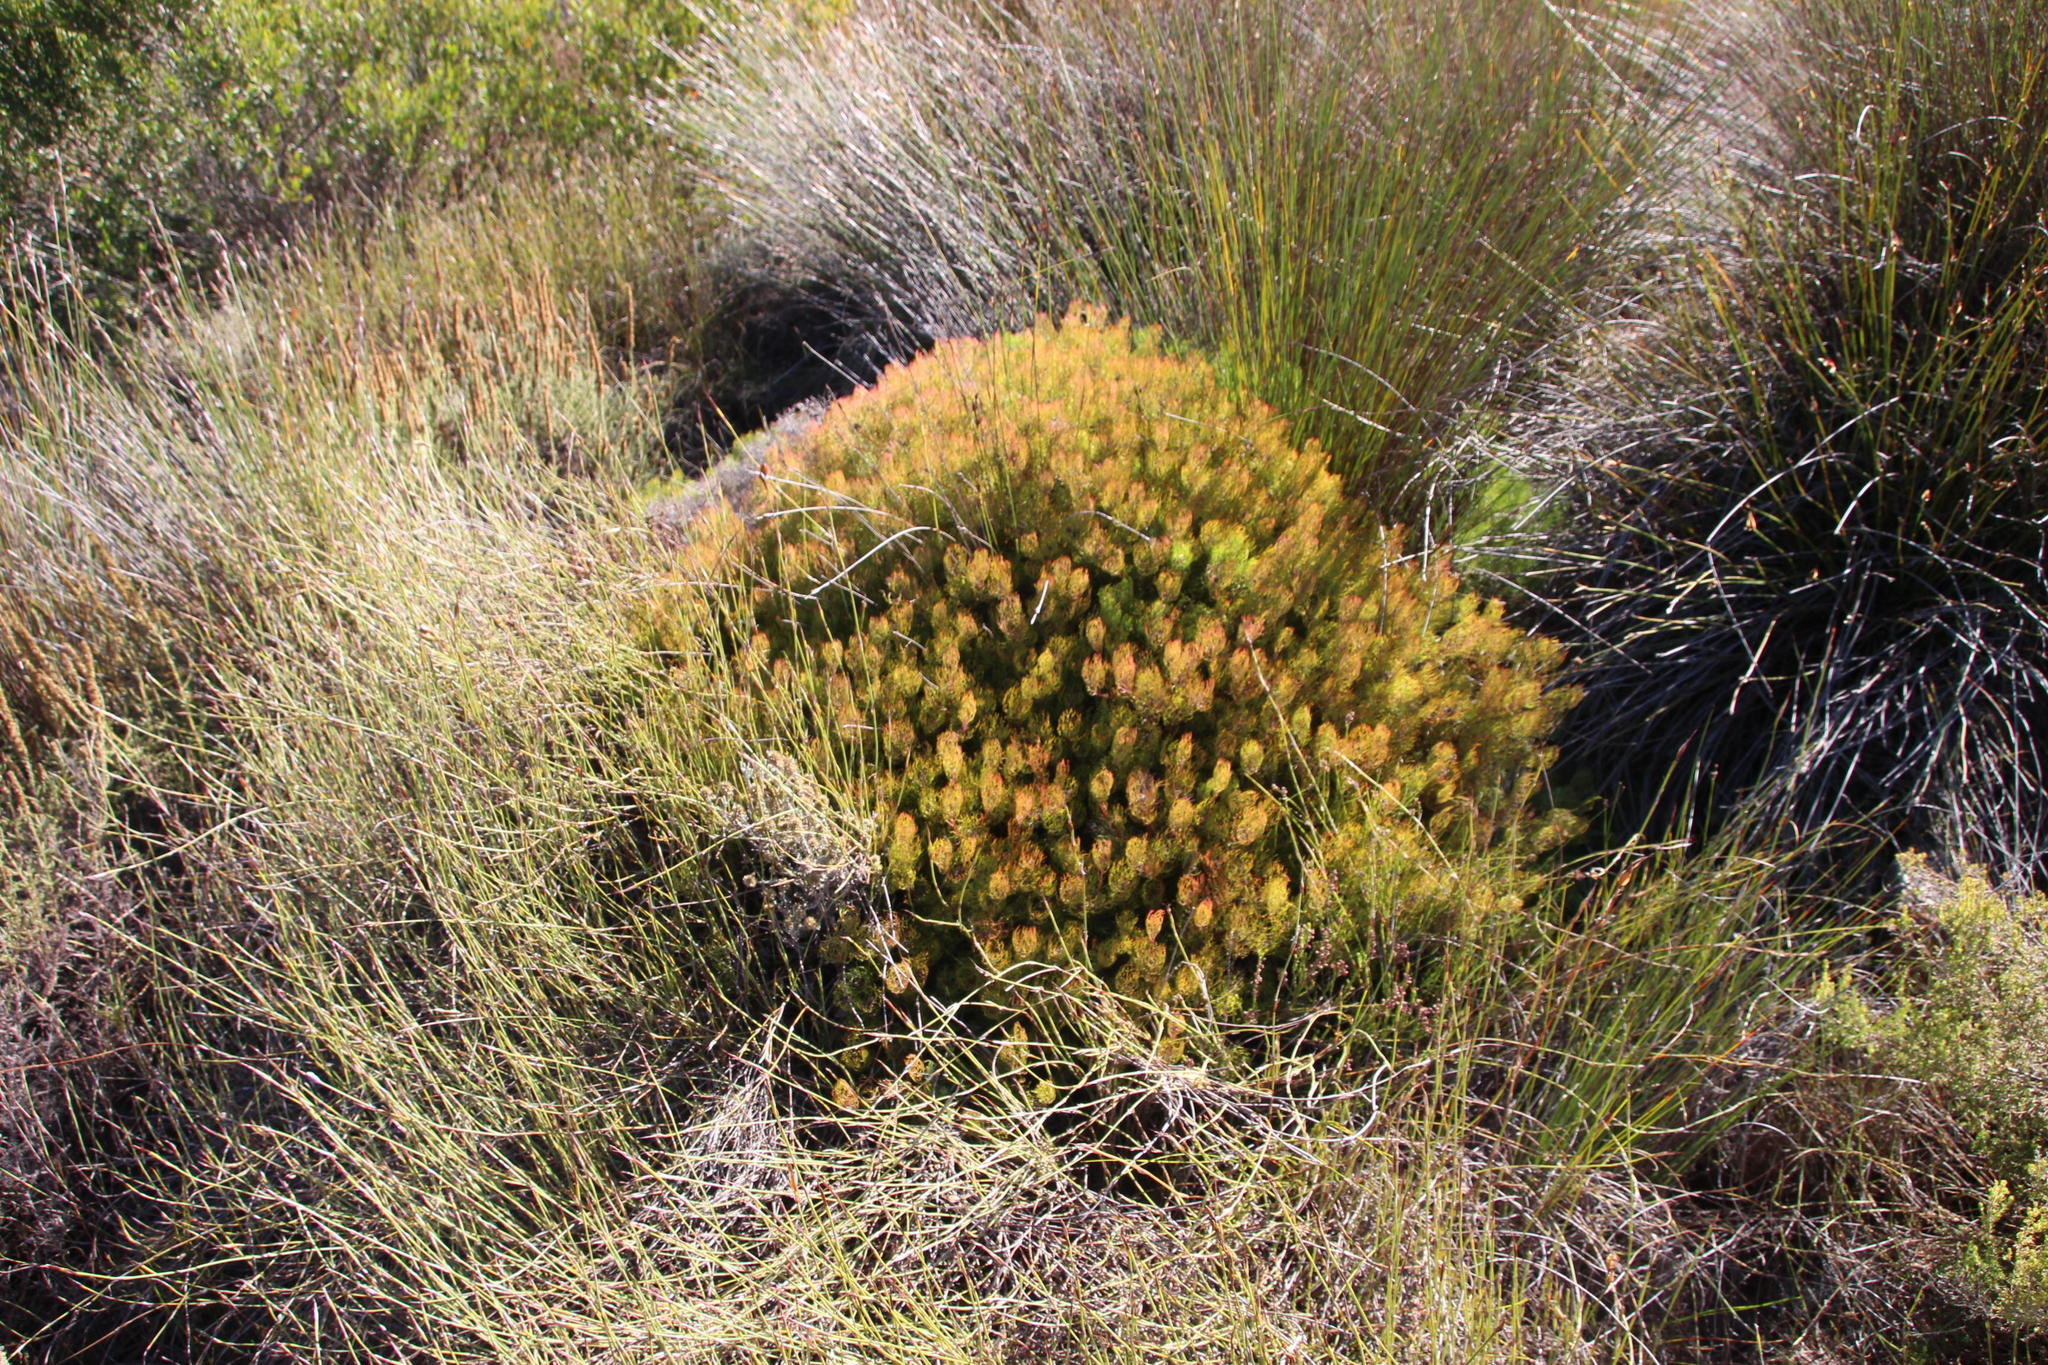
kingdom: Plantae
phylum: Tracheophyta
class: Magnoliopsida
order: Proteales
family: Proteaceae
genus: Serruria
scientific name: Serruria inconspicua
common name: Cryptic spiderhead
